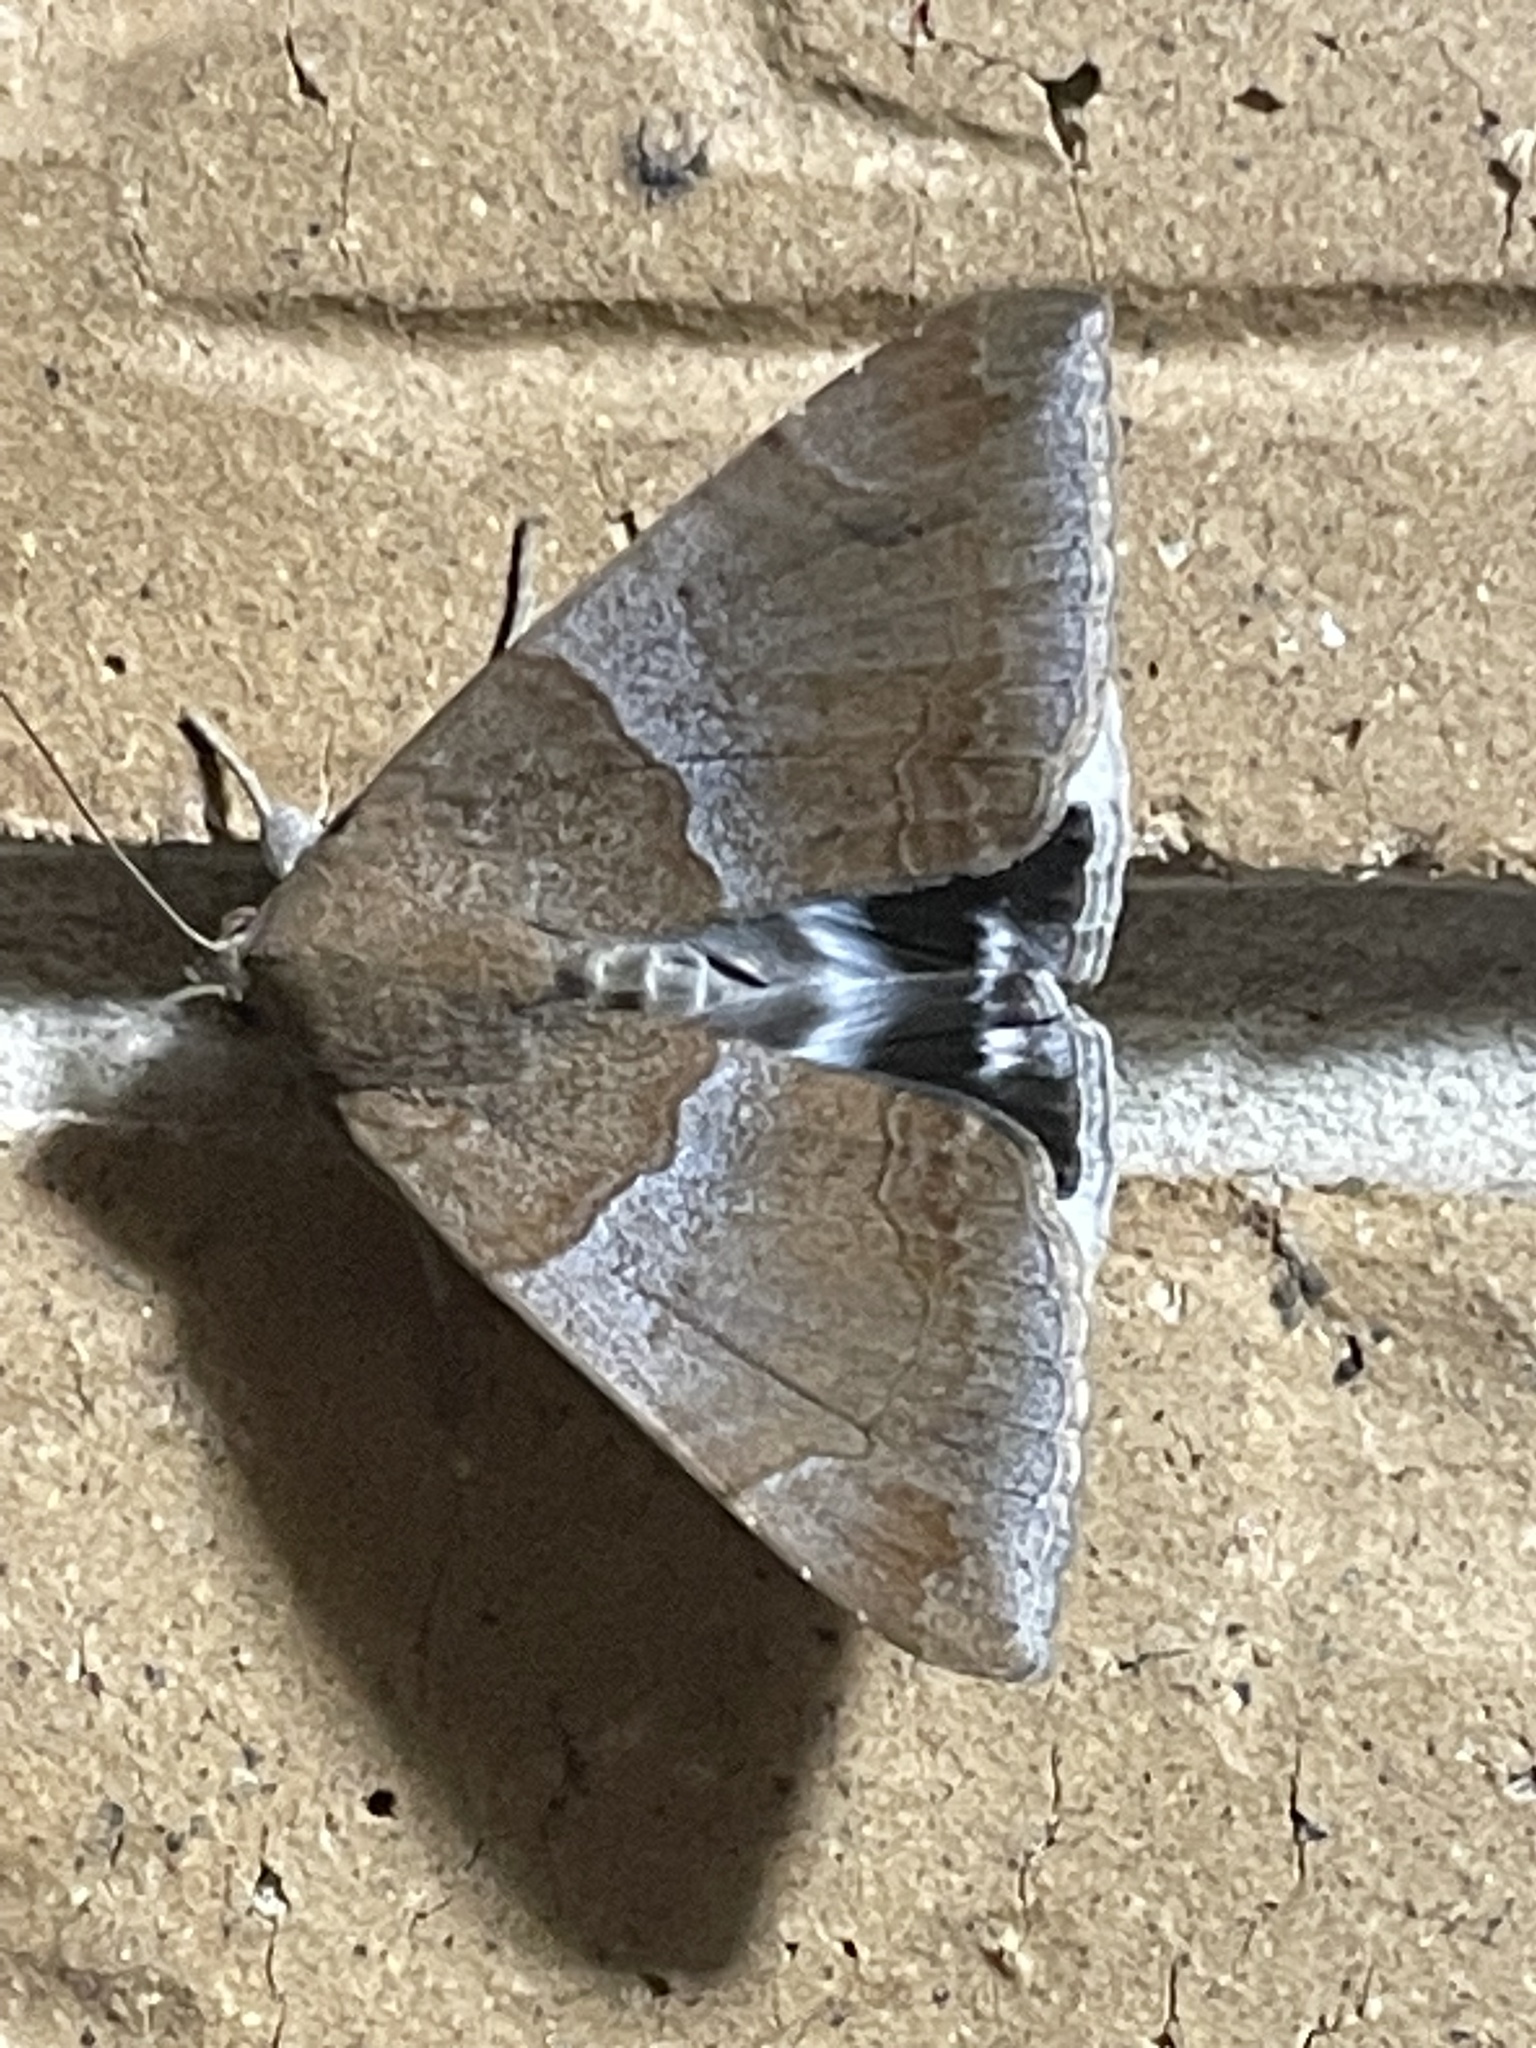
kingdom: Animalia
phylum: Arthropoda
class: Insecta
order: Lepidoptera
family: Erebidae
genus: Achaea
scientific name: Achaea janata
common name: Croton caterpillar
